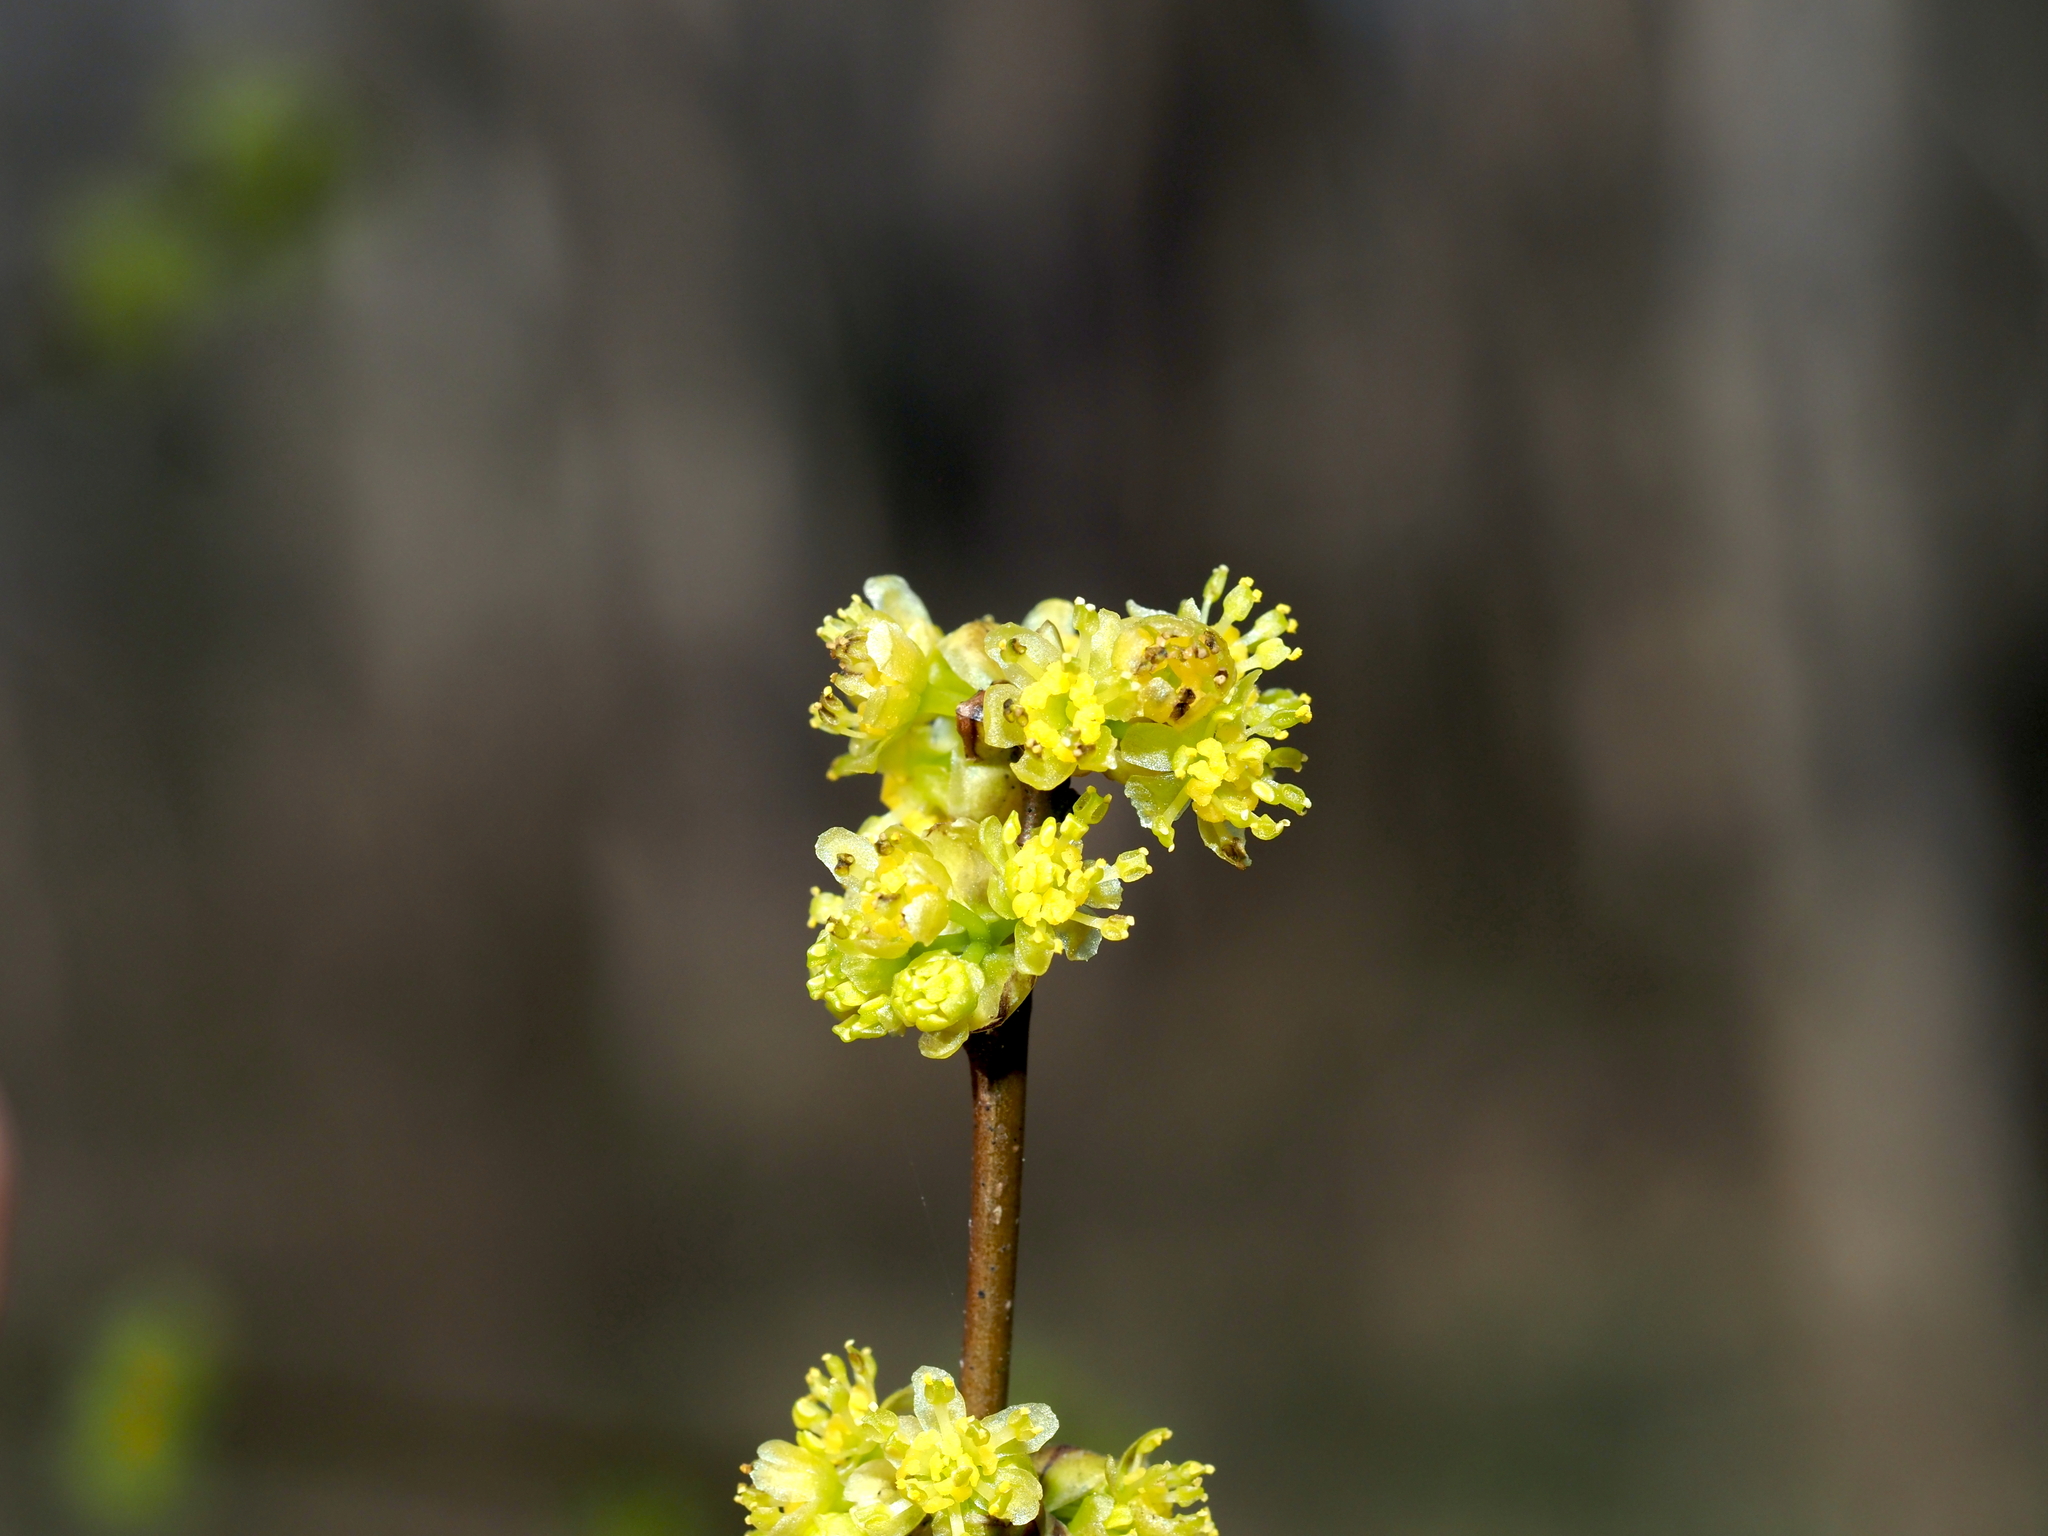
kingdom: Plantae
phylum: Tracheophyta
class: Magnoliopsida
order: Laurales
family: Lauraceae
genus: Lindera
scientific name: Lindera benzoin
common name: Spicebush
